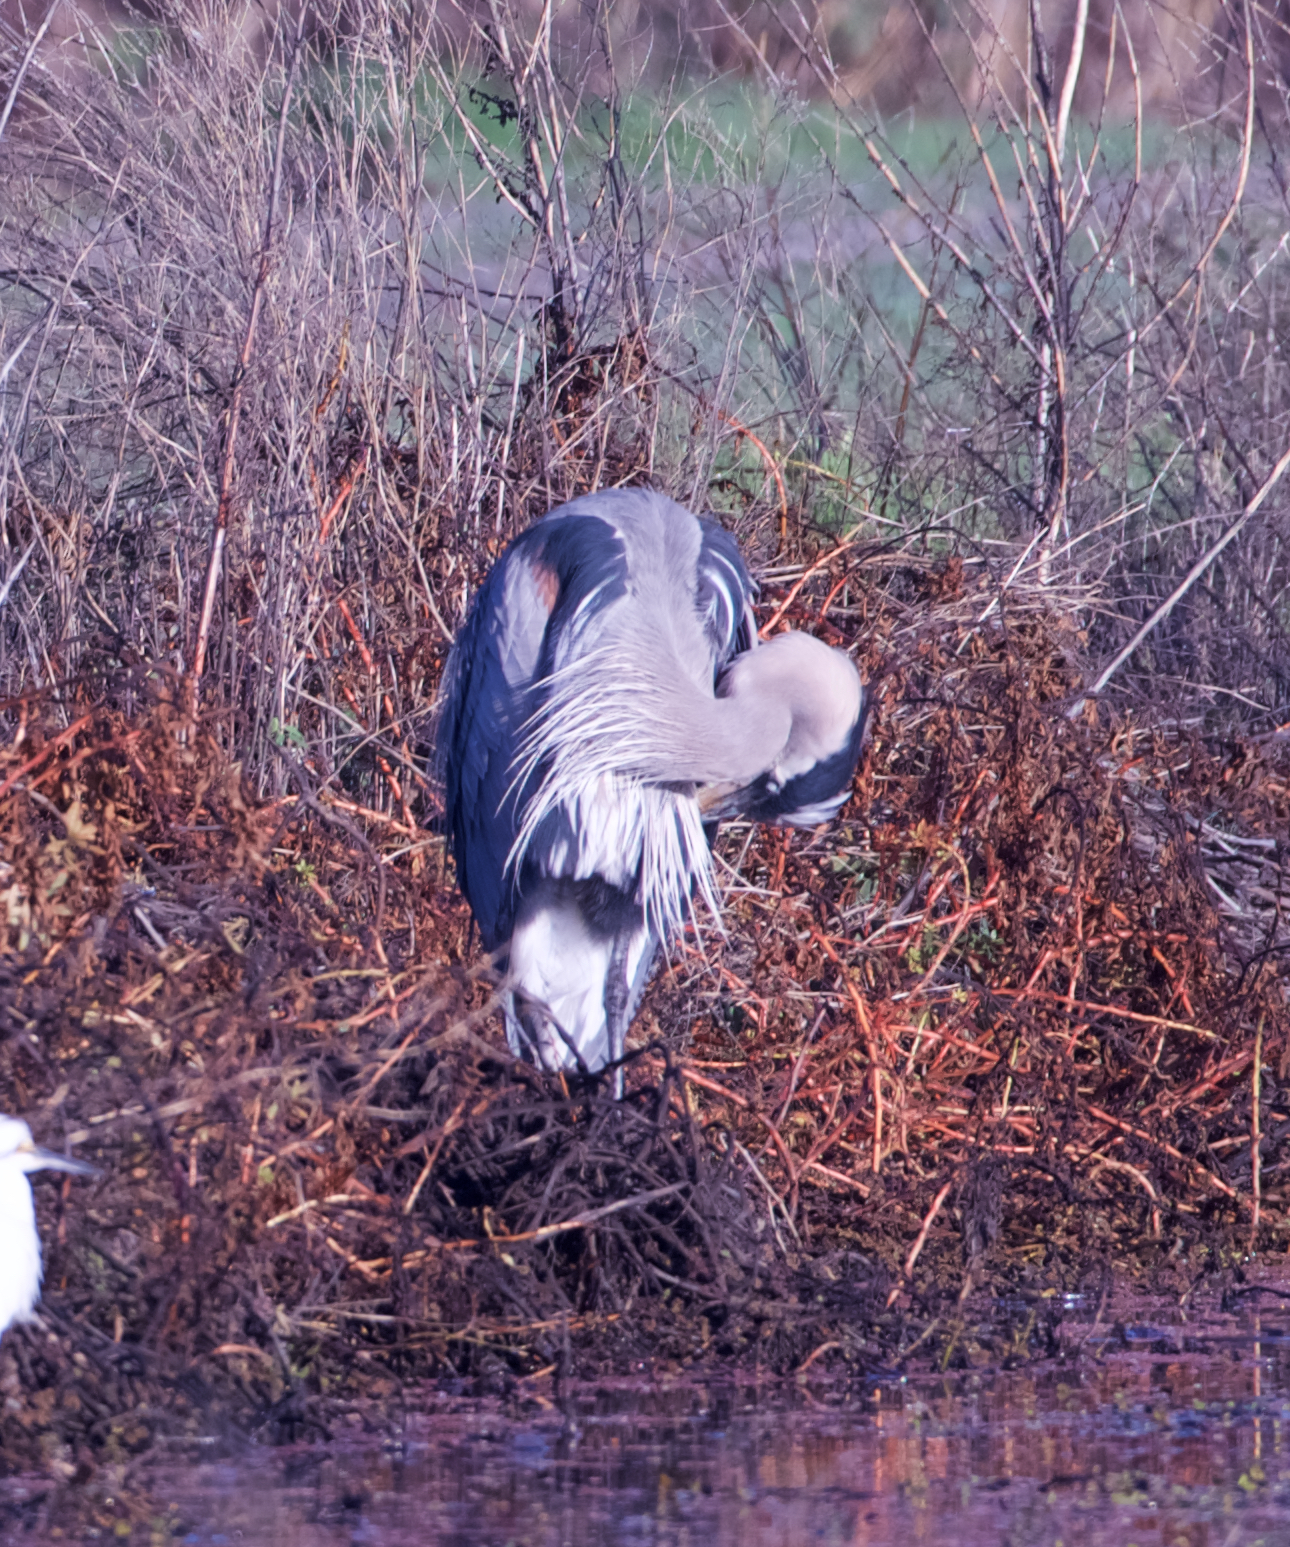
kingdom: Animalia
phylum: Chordata
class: Aves
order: Pelecaniformes
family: Ardeidae
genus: Ardea
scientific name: Ardea herodias
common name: Great blue heron
